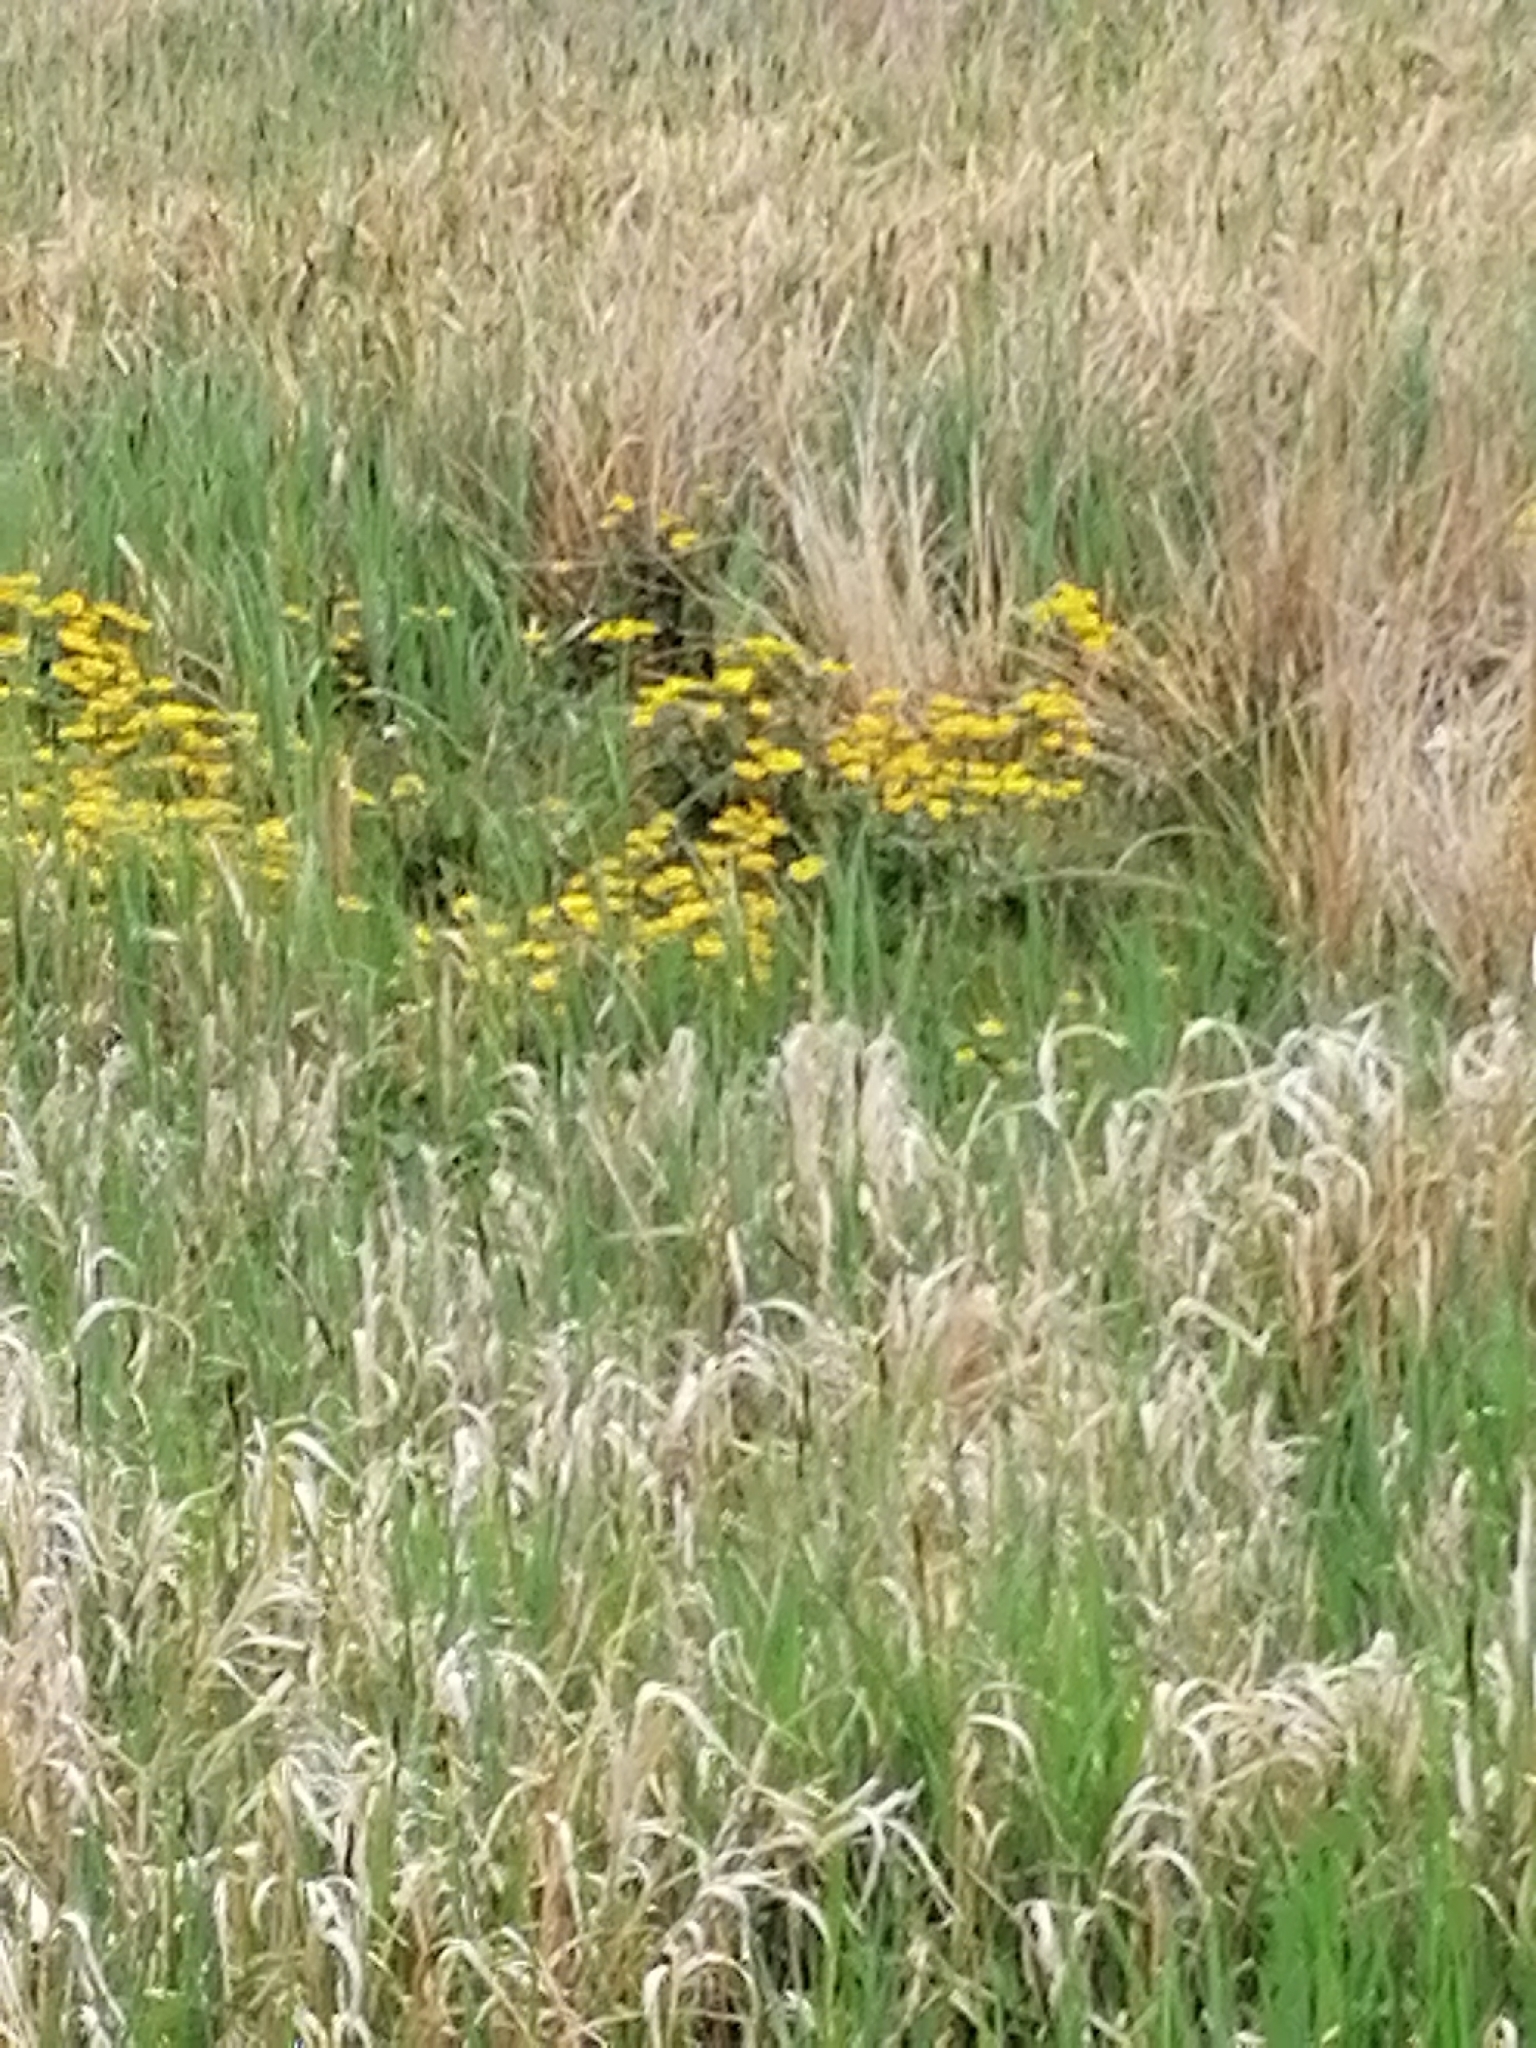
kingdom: Plantae
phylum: Tracheophyta
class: Magnoliopsida
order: Ranunculales
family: Ranunculaceae
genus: Caltha
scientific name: Caltha palustris
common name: Marsh marigold
